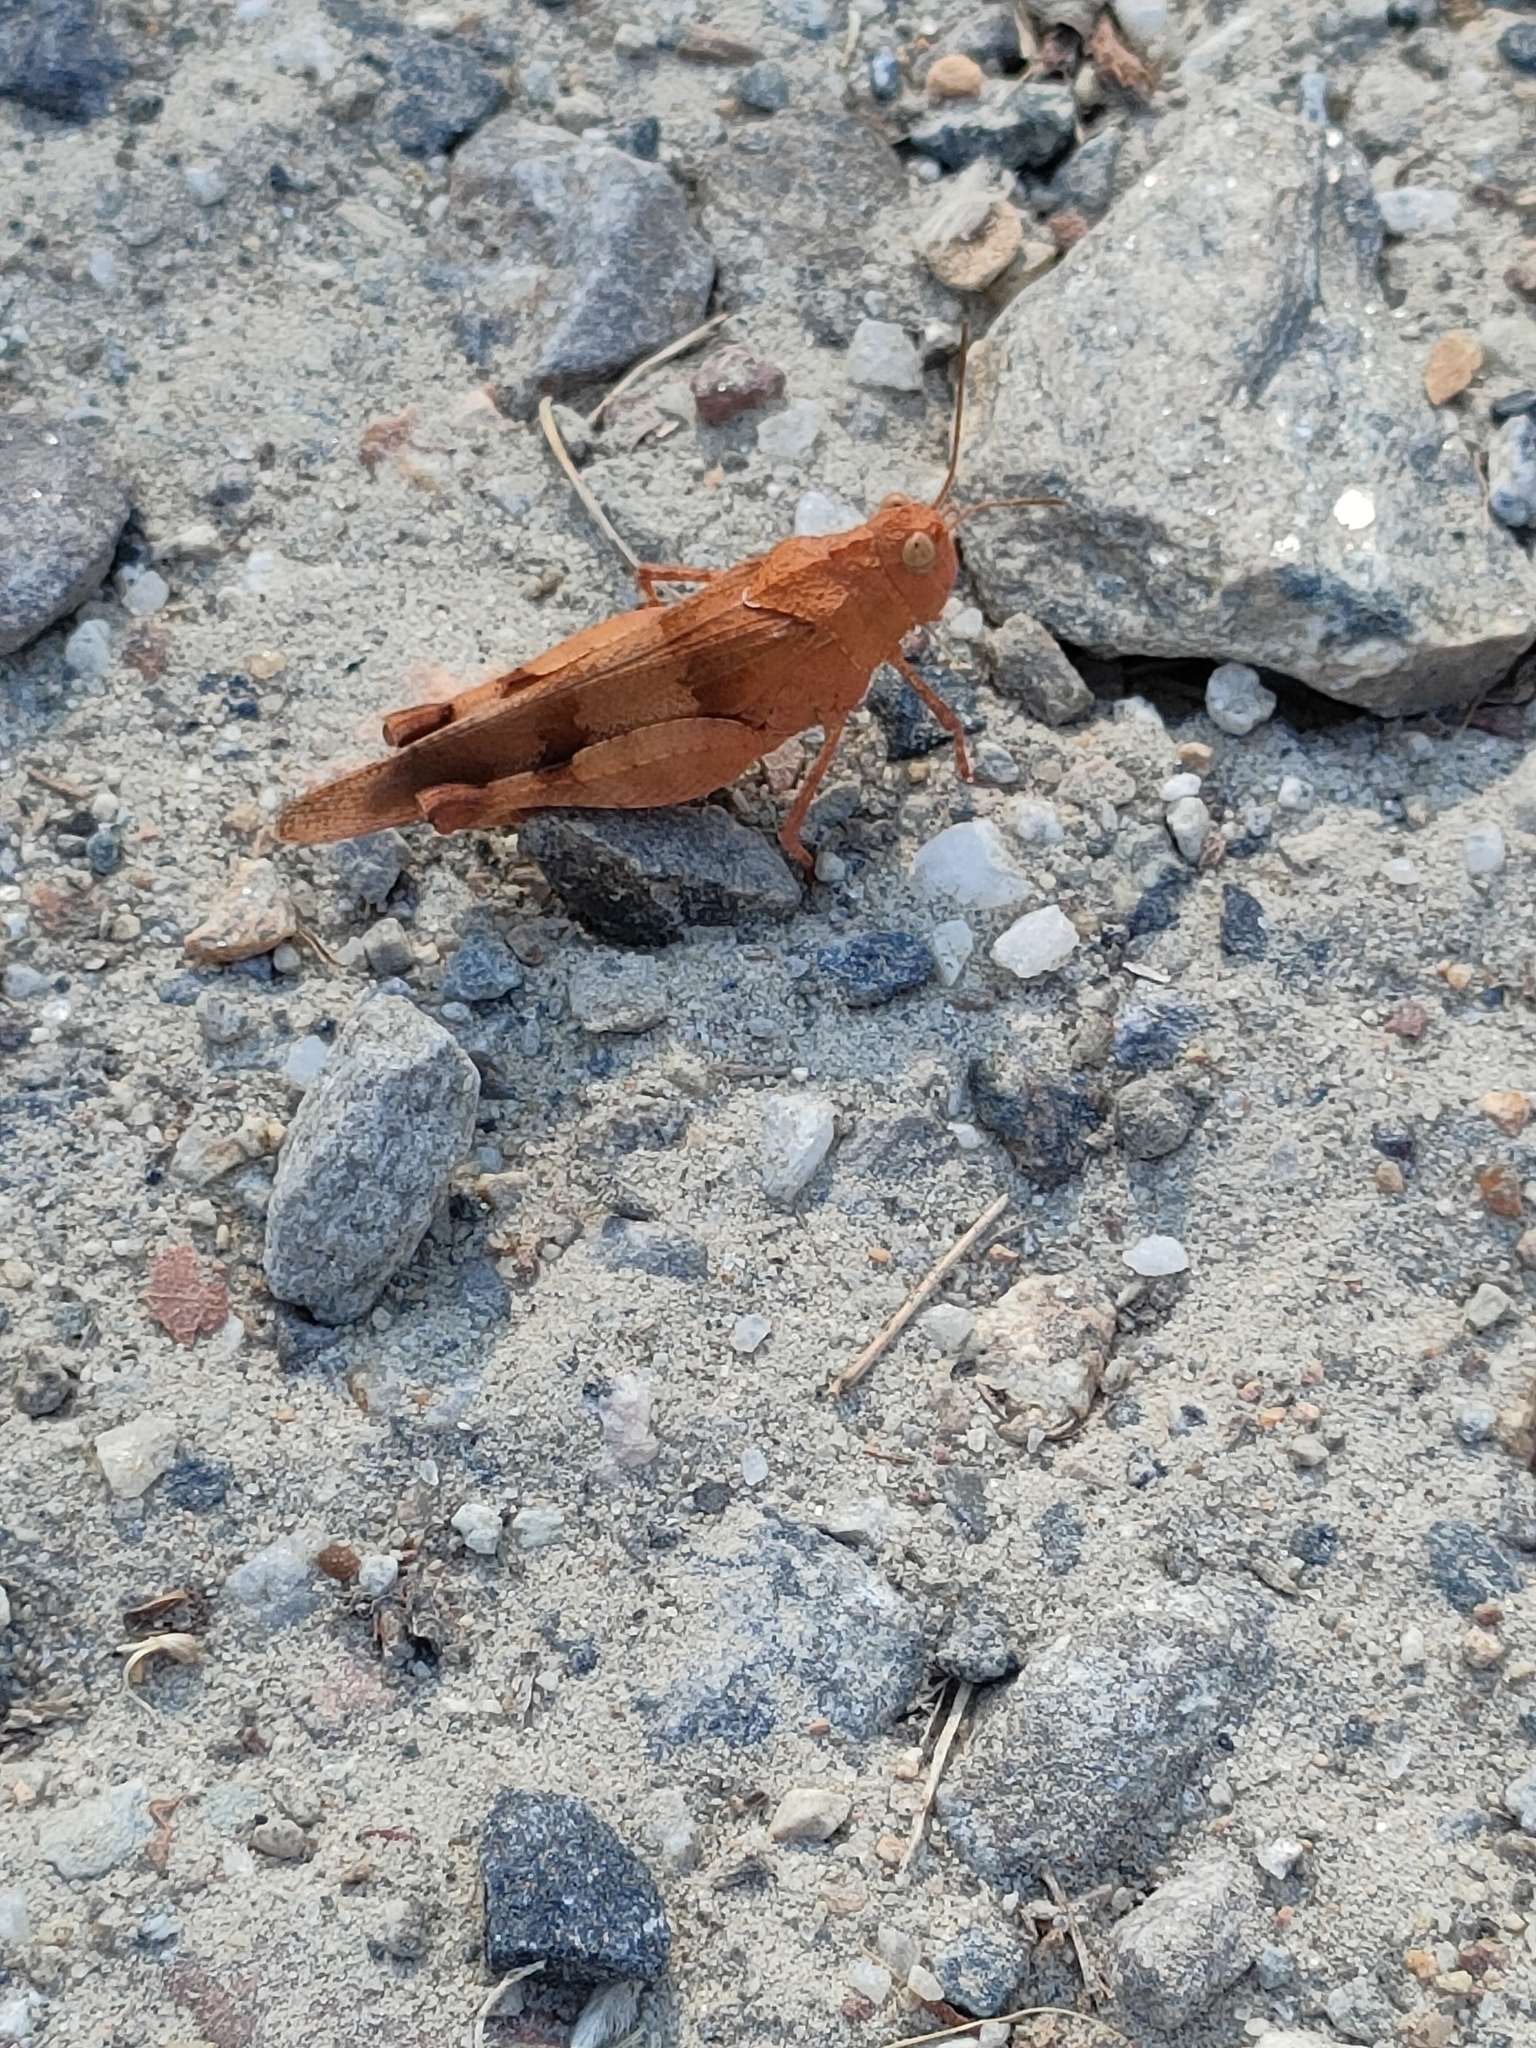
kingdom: Animalia
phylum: Arthropoda
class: Insecta
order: Orthoptera
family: Acrididae
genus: Oedipoda
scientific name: Oedipoda caerulescens
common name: Blue-winged grasshopper
